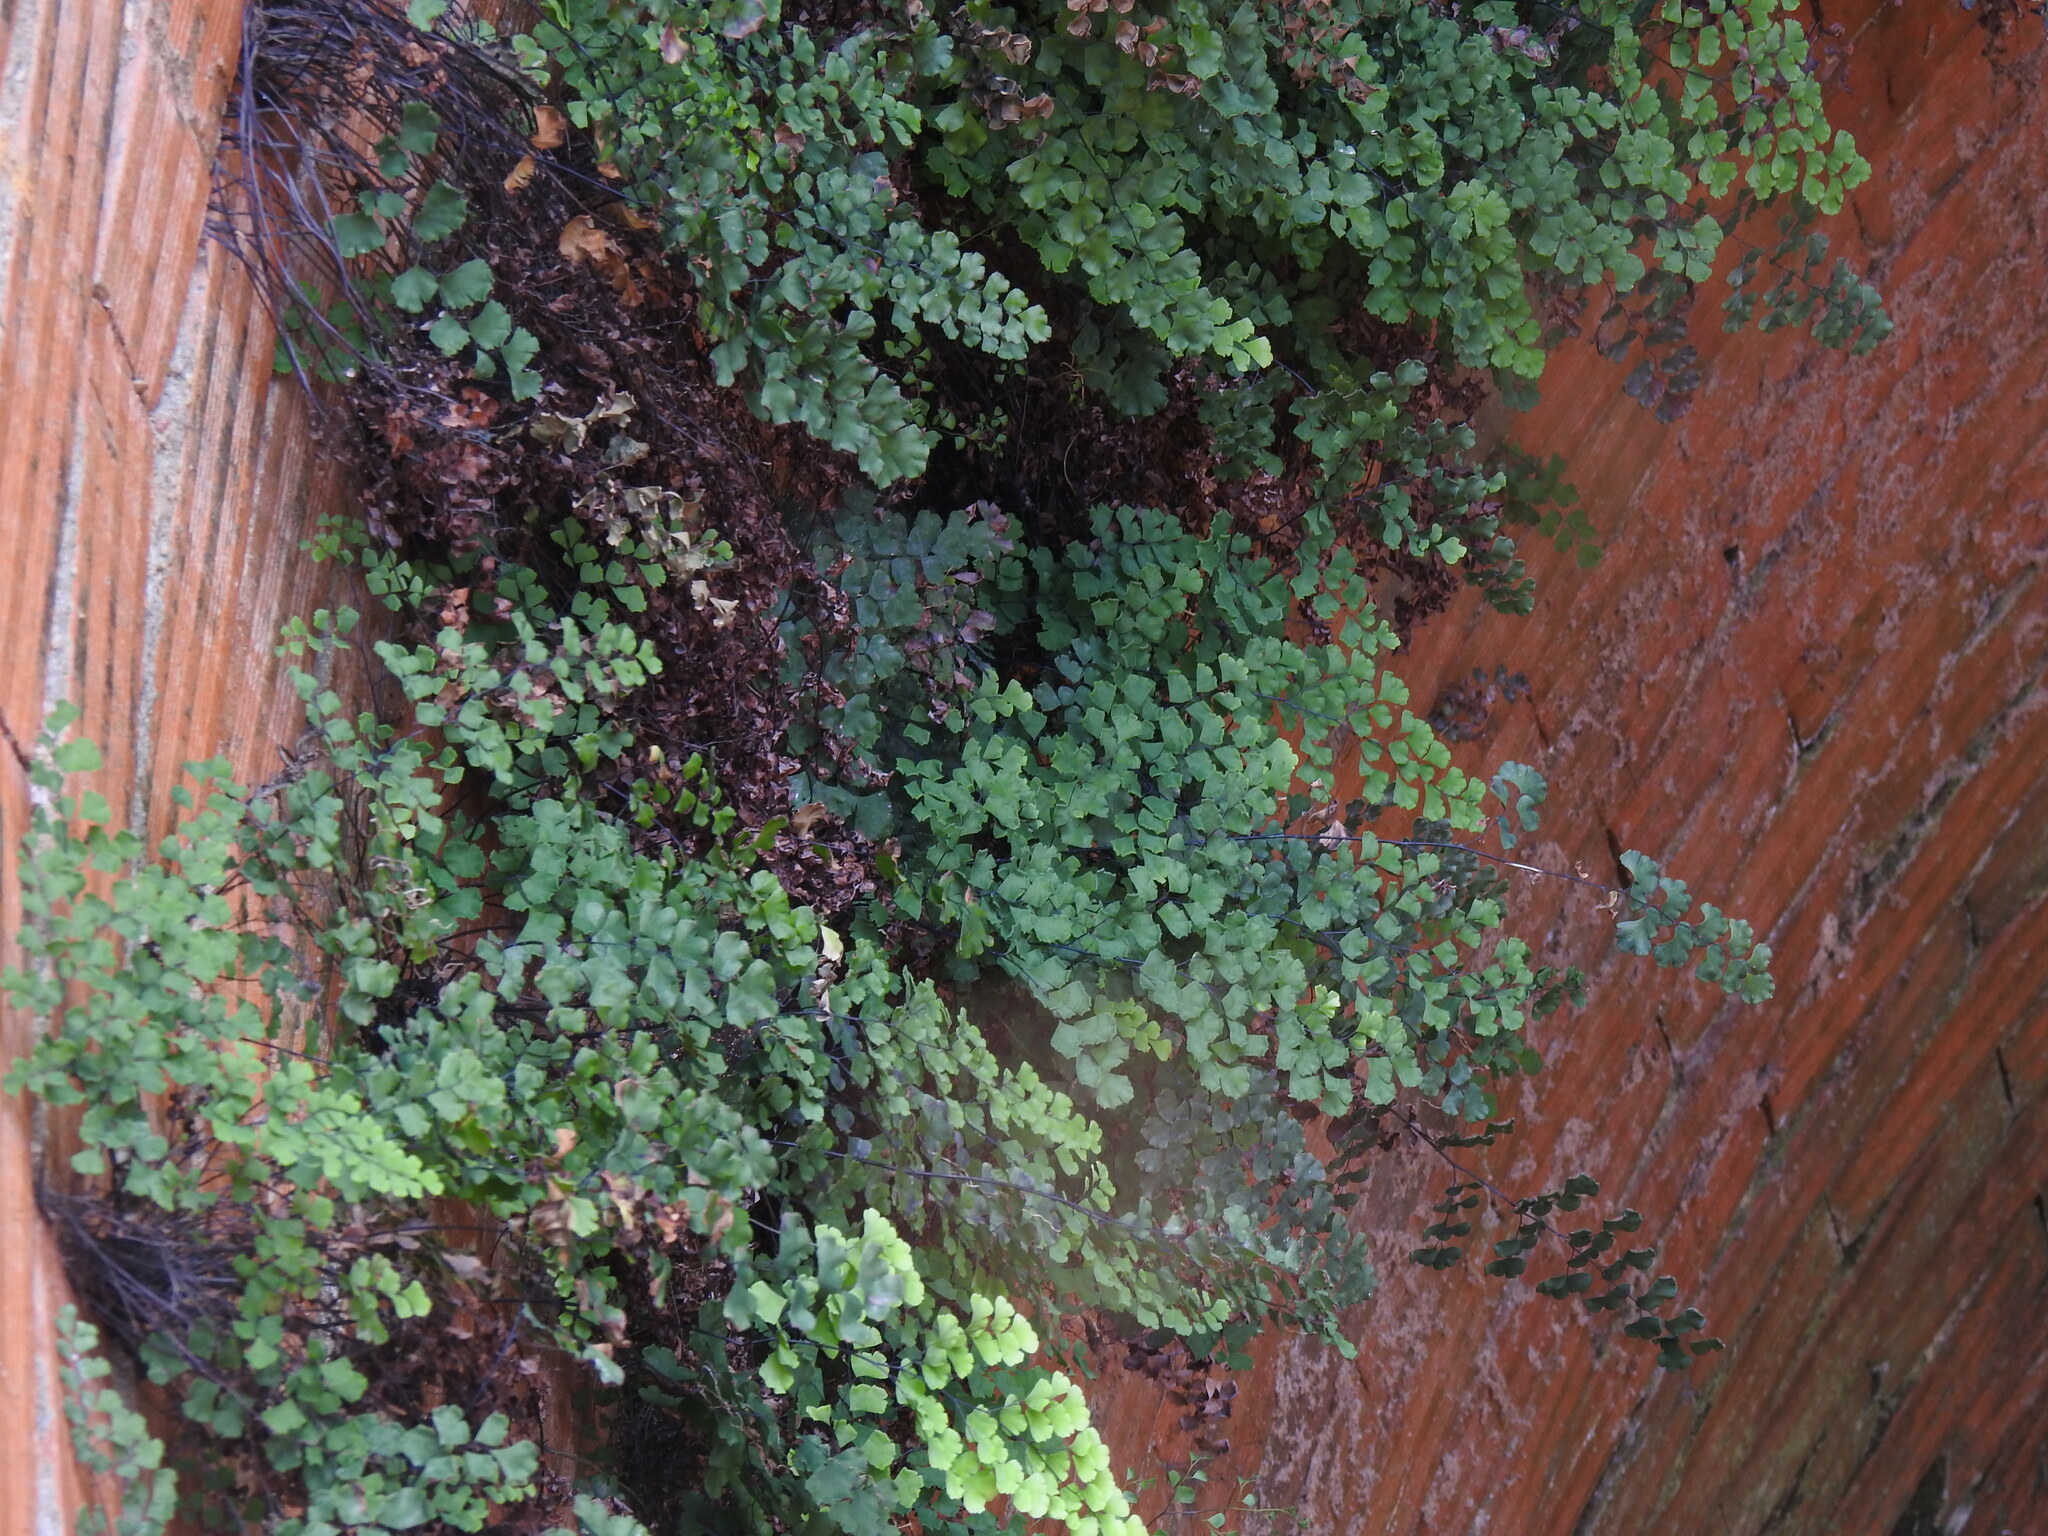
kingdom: Plantae
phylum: Tracheophyta
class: Polypodiopsida
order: Polypodiales
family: Pteridaceae
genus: Adiantum
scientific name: Adiantum capillus-veneris
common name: Maidenhair fern
